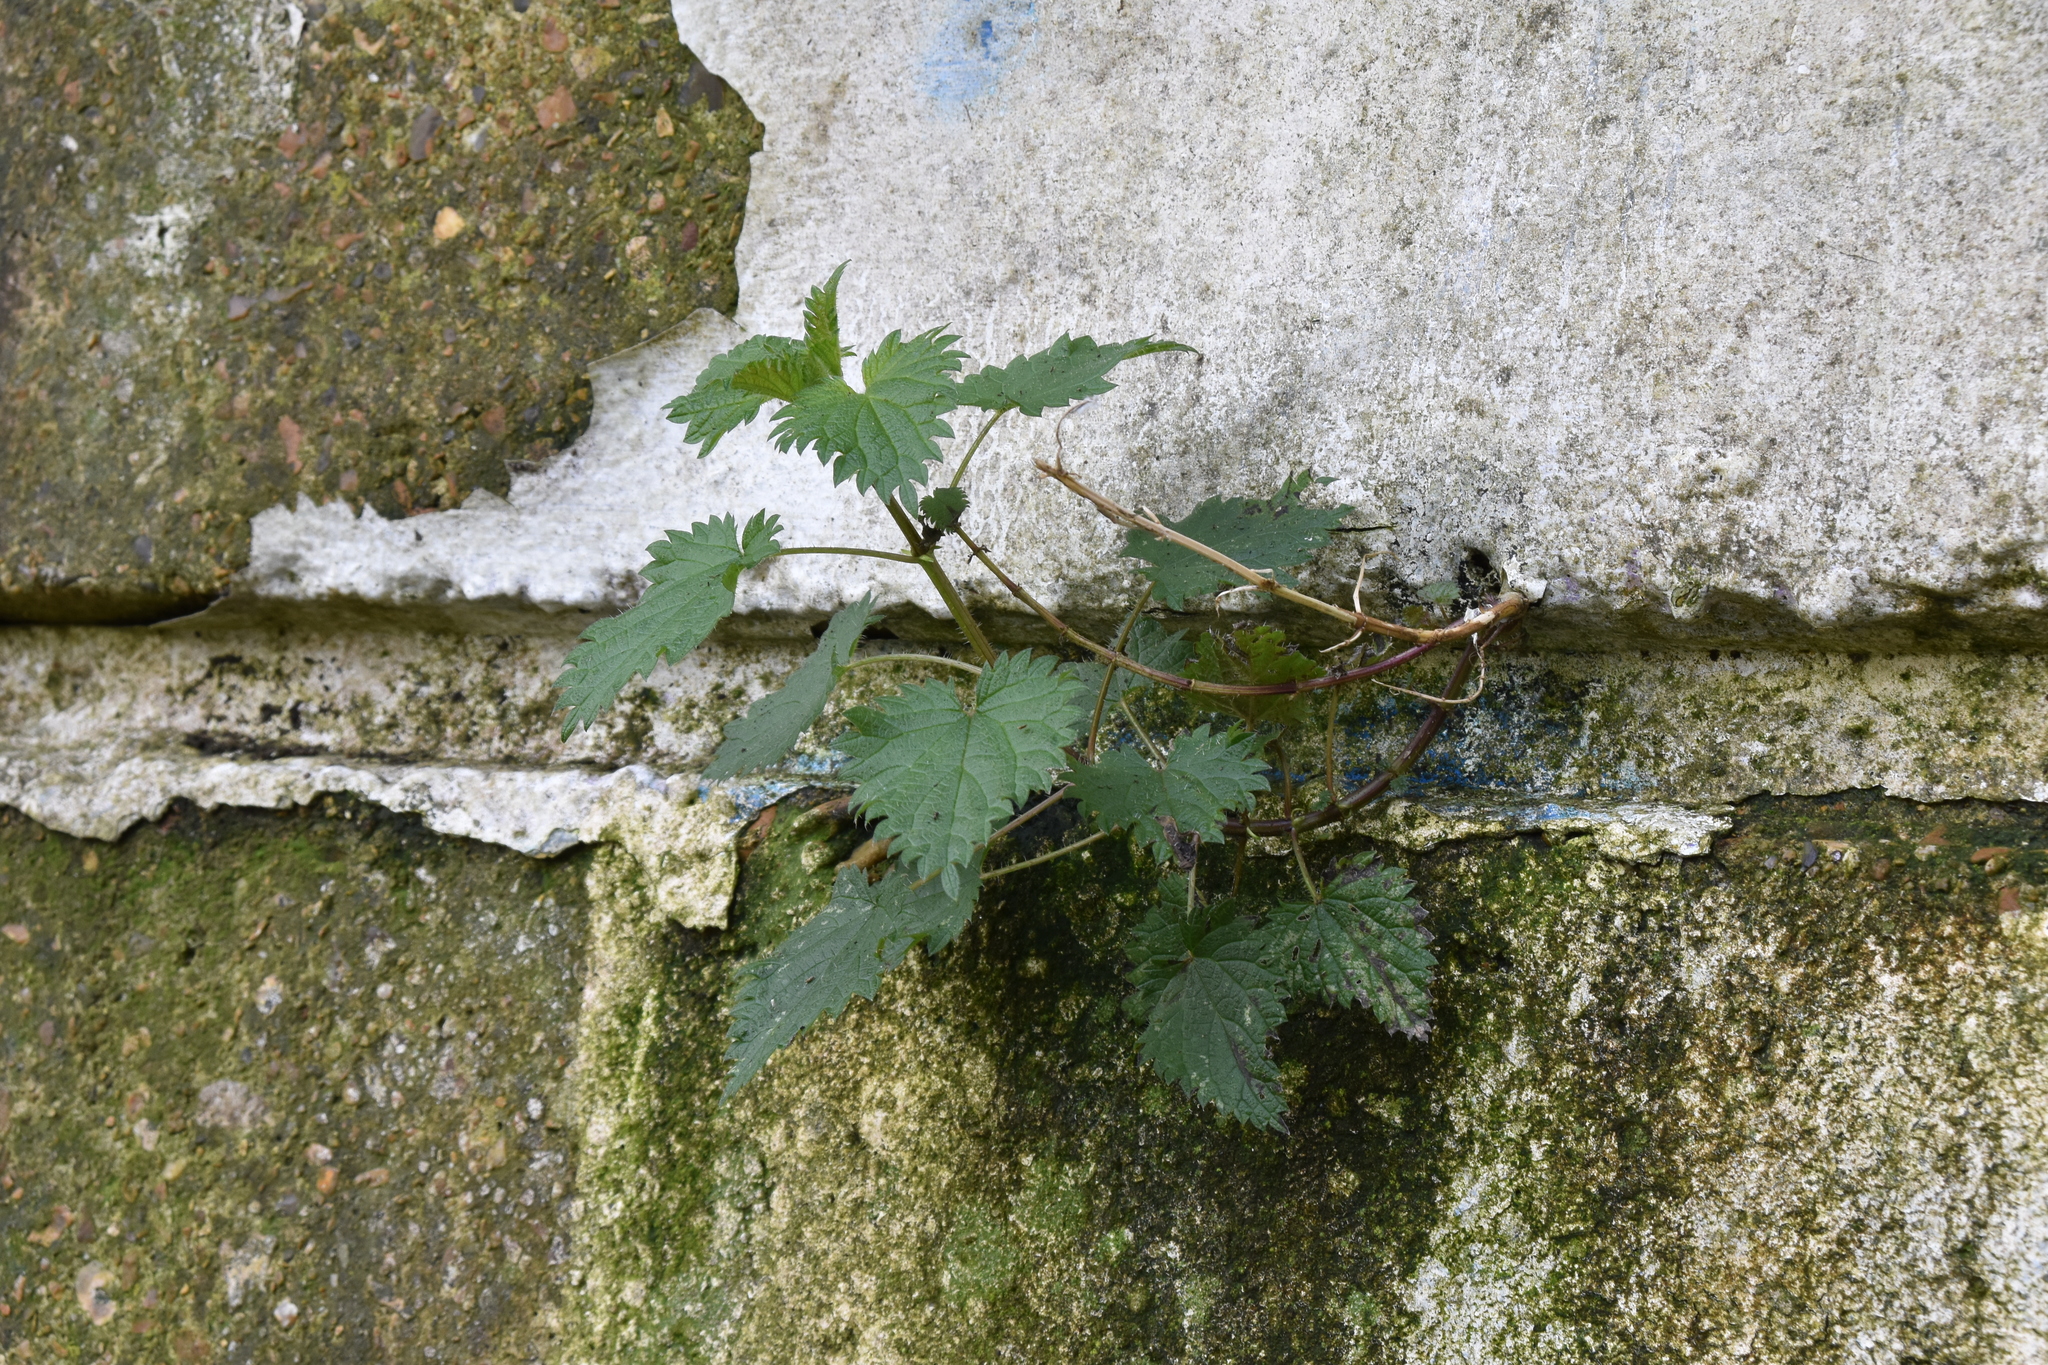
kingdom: Plantae
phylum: Tracheophyta
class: Magnoliopsida
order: Rosales
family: Urticaceae
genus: Urtica
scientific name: Urtica dioica
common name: Common nettle
